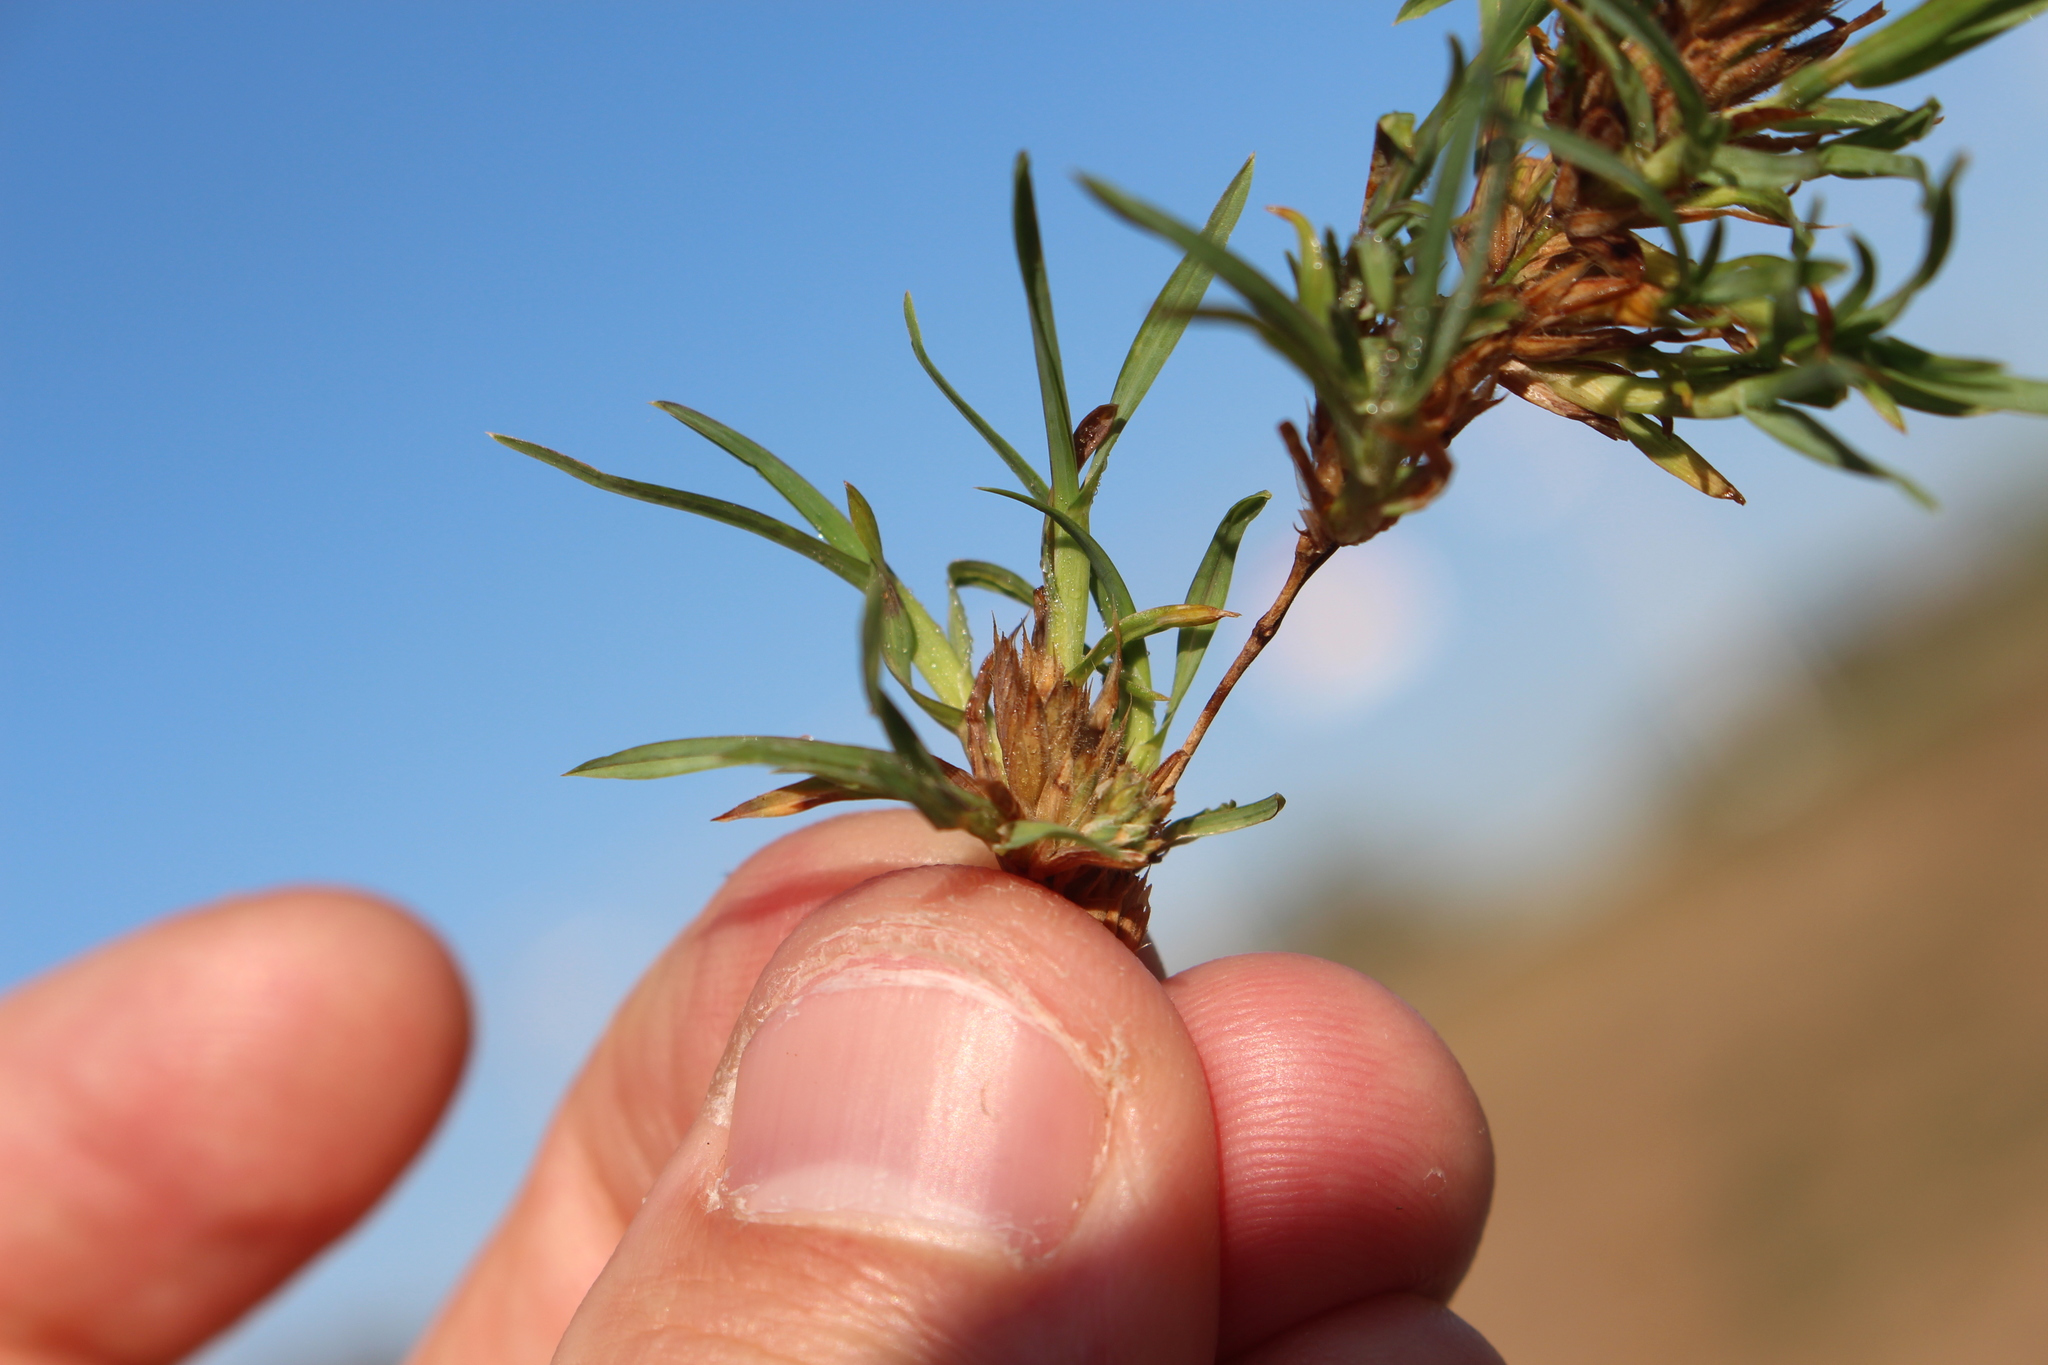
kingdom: Plantae
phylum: Tracheophyta
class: Liliopsida
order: Poales
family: Poaceae
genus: Dactylis
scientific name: Dactylis glomerata
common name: Orchardgrass
